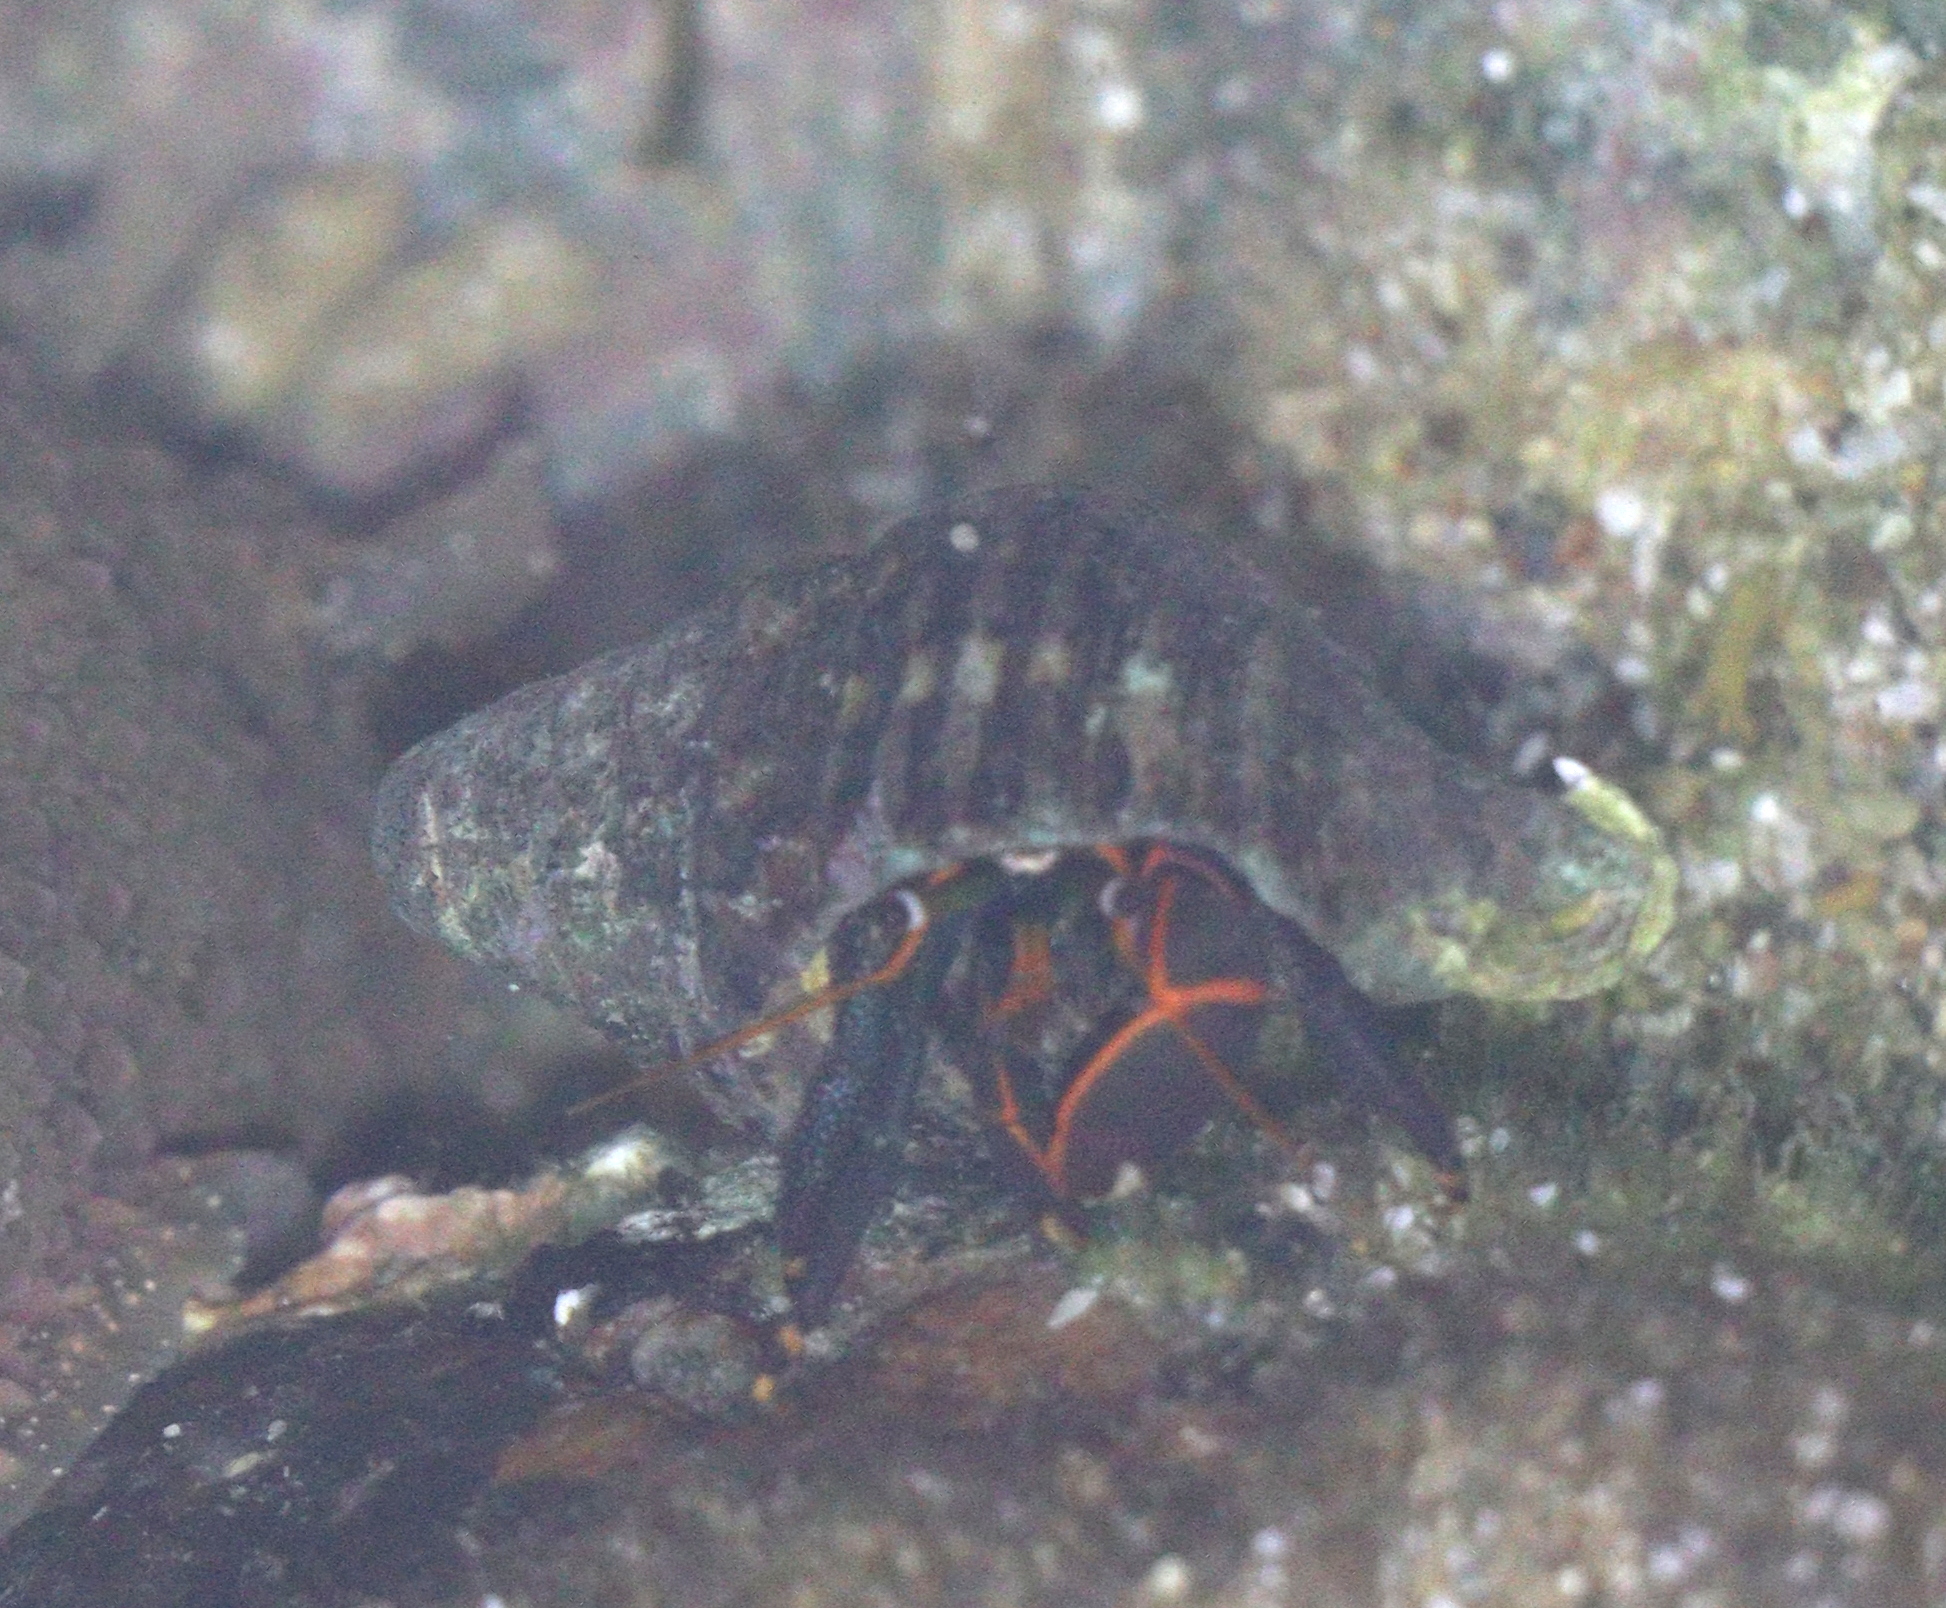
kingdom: Animalia
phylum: Arthropoda
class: Malacostraca
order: Decapoda
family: Diogenidae
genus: Calcinus
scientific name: Calcinus obscurus
